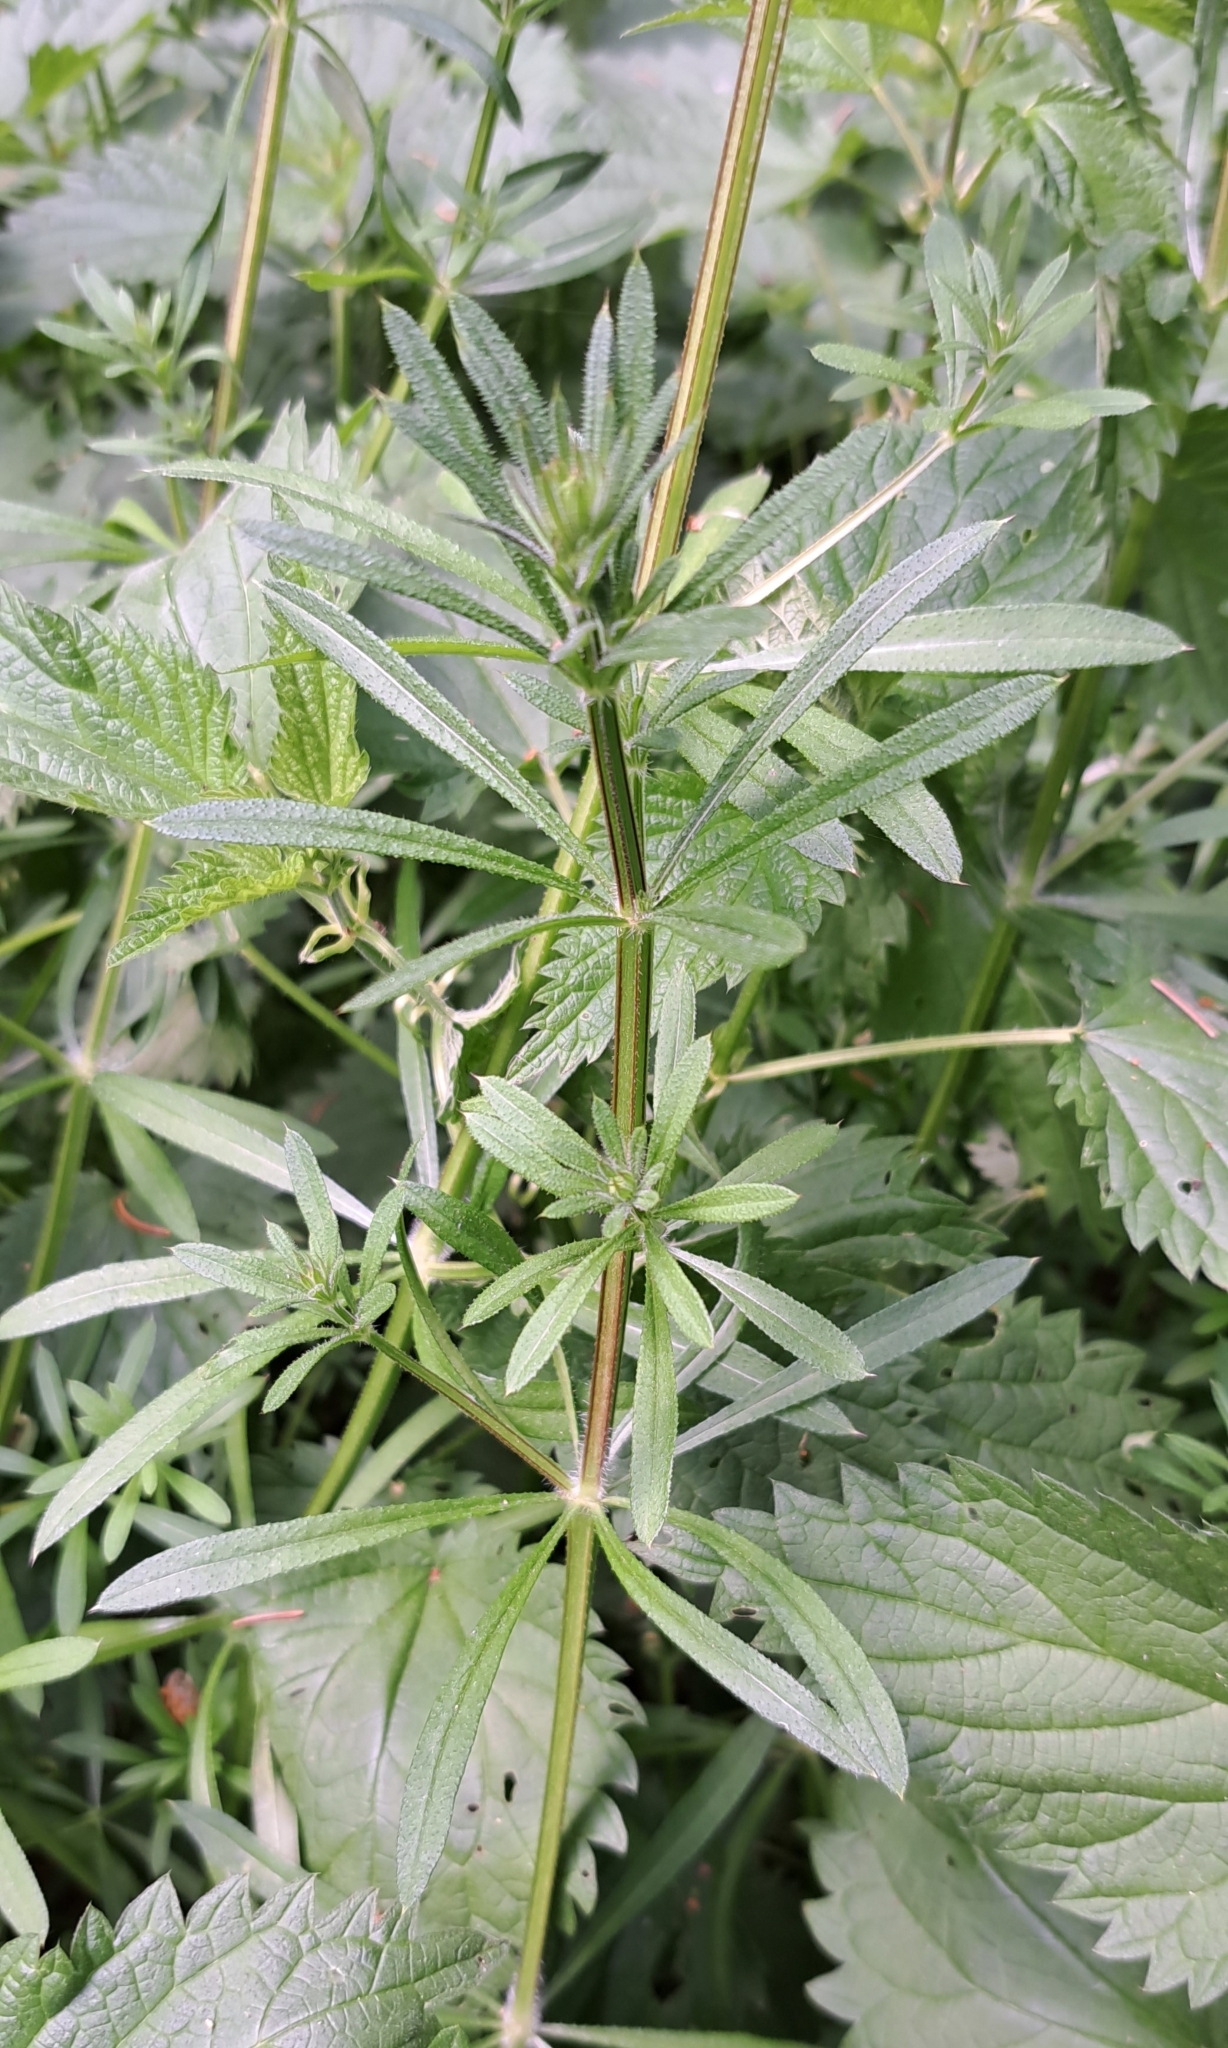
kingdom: Plantae
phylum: Tracheophyta
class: Magnoliopsida
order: Gentianales
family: Rubiaceae
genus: Galium
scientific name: Galium aparine
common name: Cleavers
